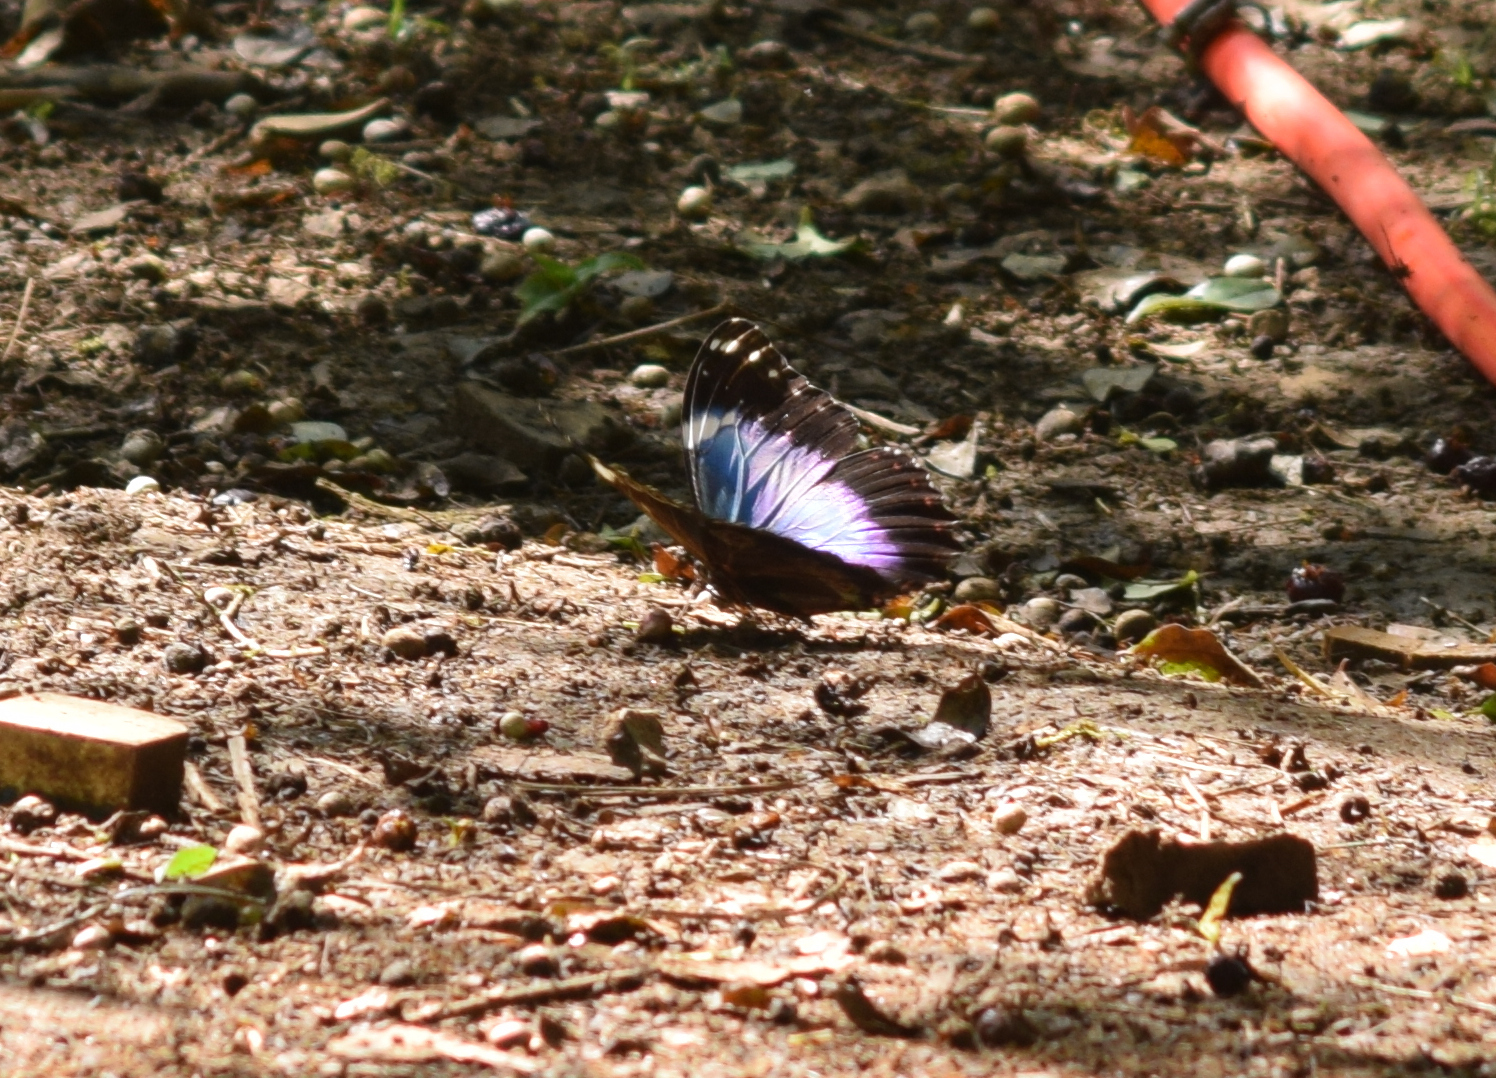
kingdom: Animalia
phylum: Arthropoda
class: Insecta
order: Lepidoptera
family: Nymphalidae
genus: Morpho
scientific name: Morpho helenor
